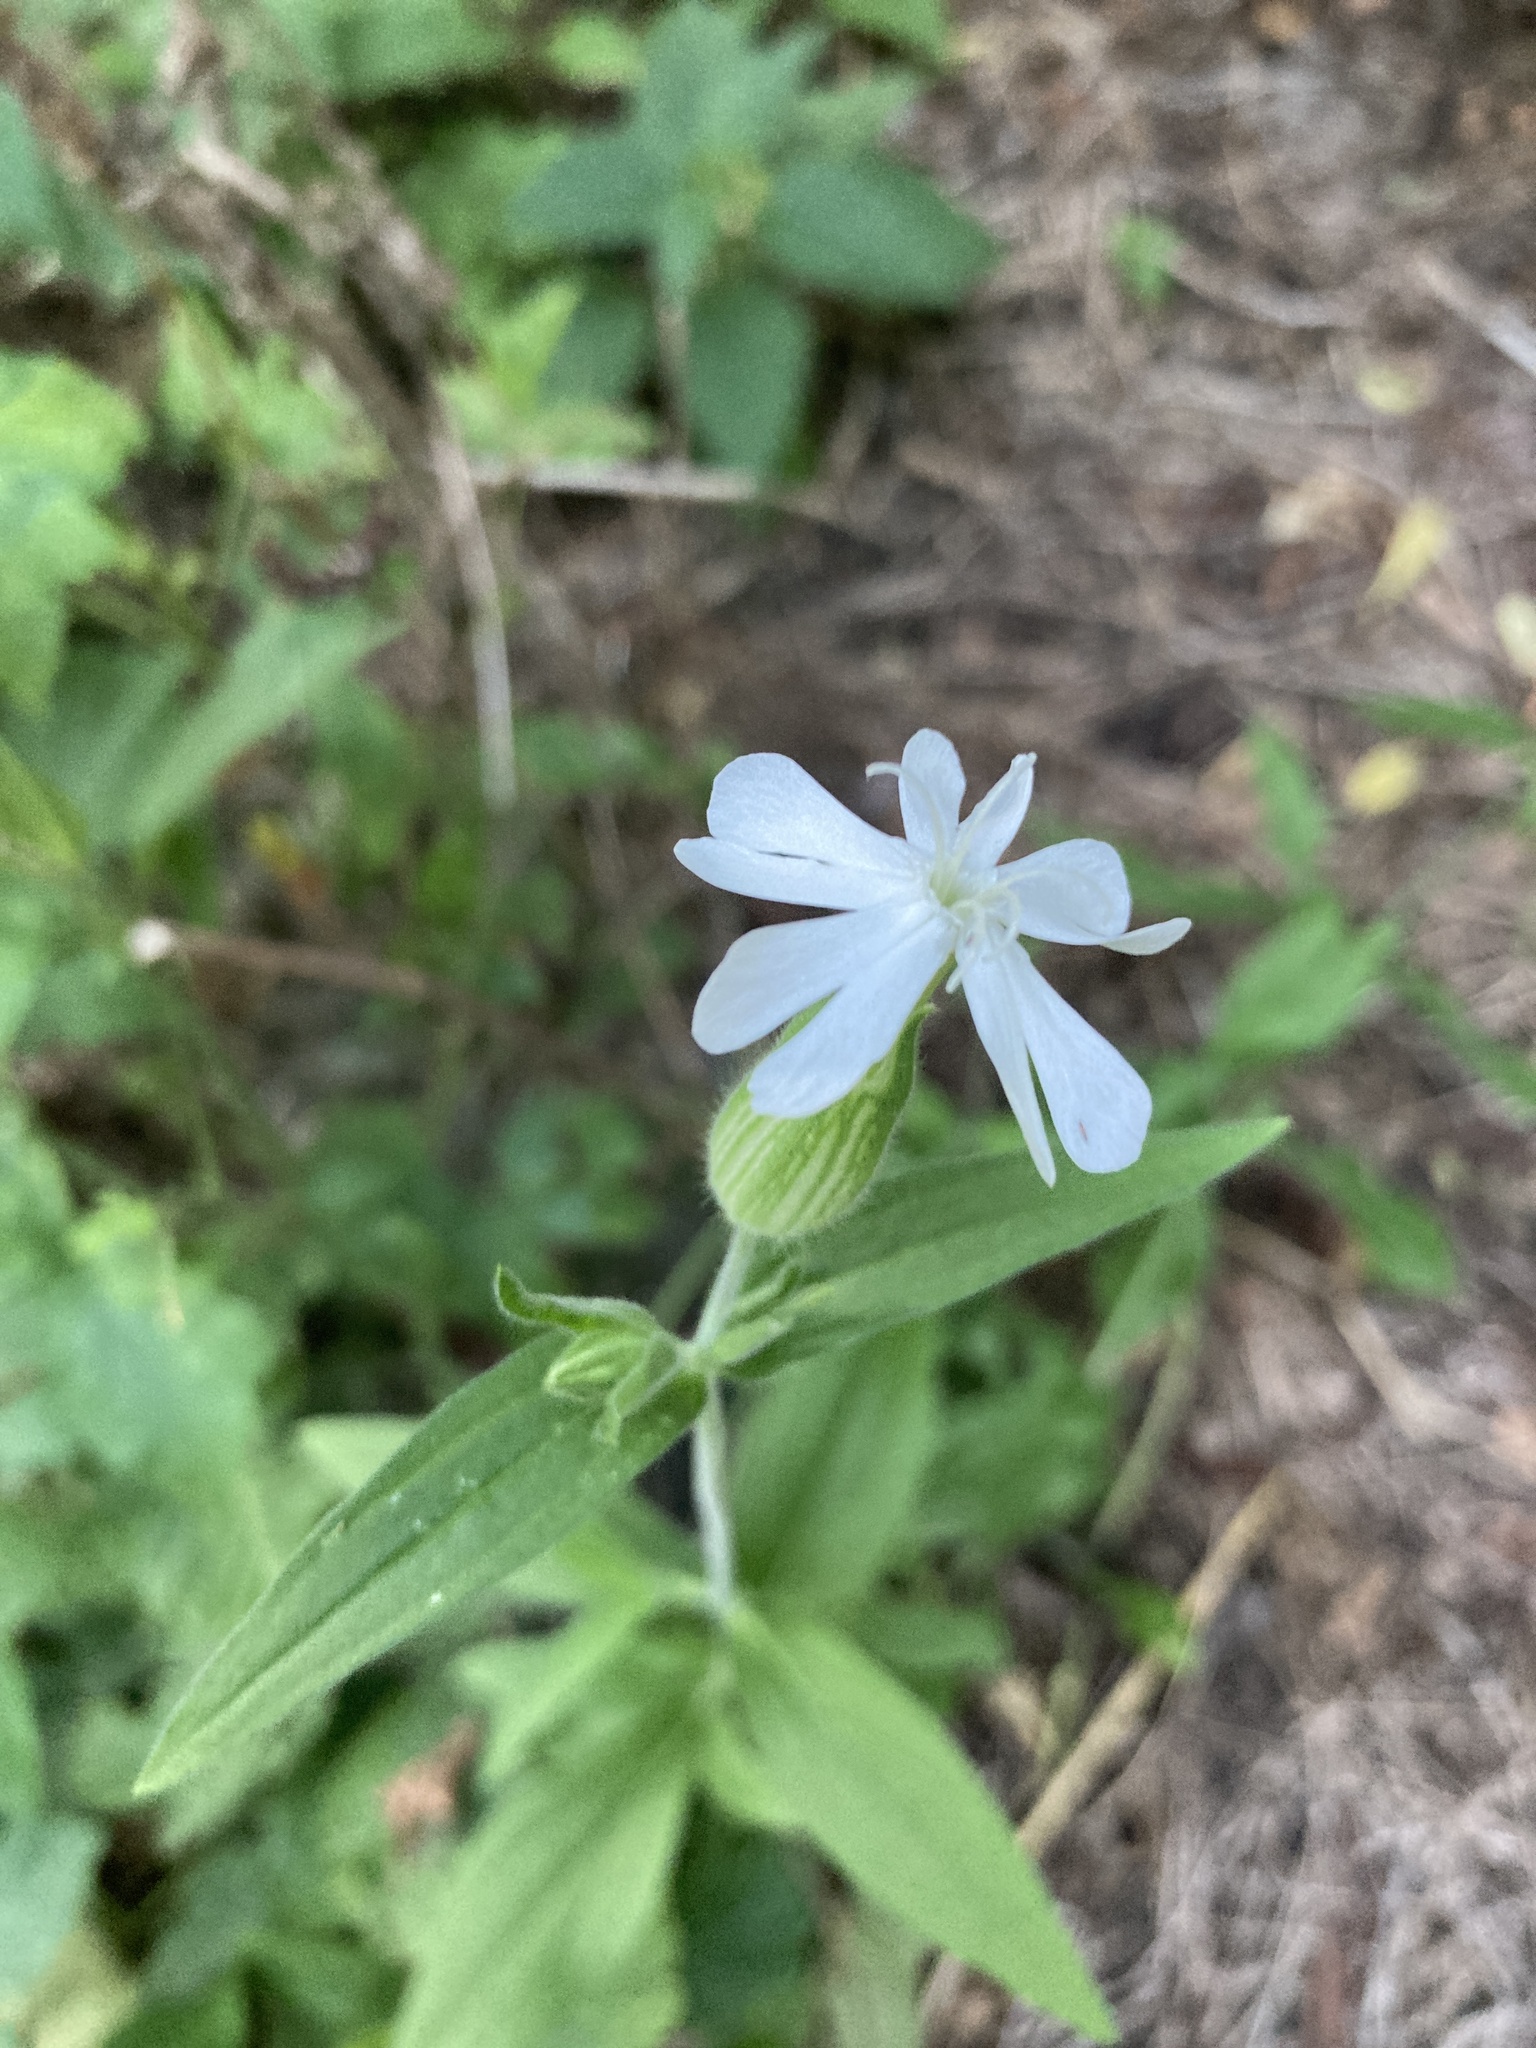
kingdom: Plantae
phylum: Tracheophyta
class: Magnoliopsida
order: Caryophyllales
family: Caryophyllaceae
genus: Silene
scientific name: Silene latifolia
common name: White campion
